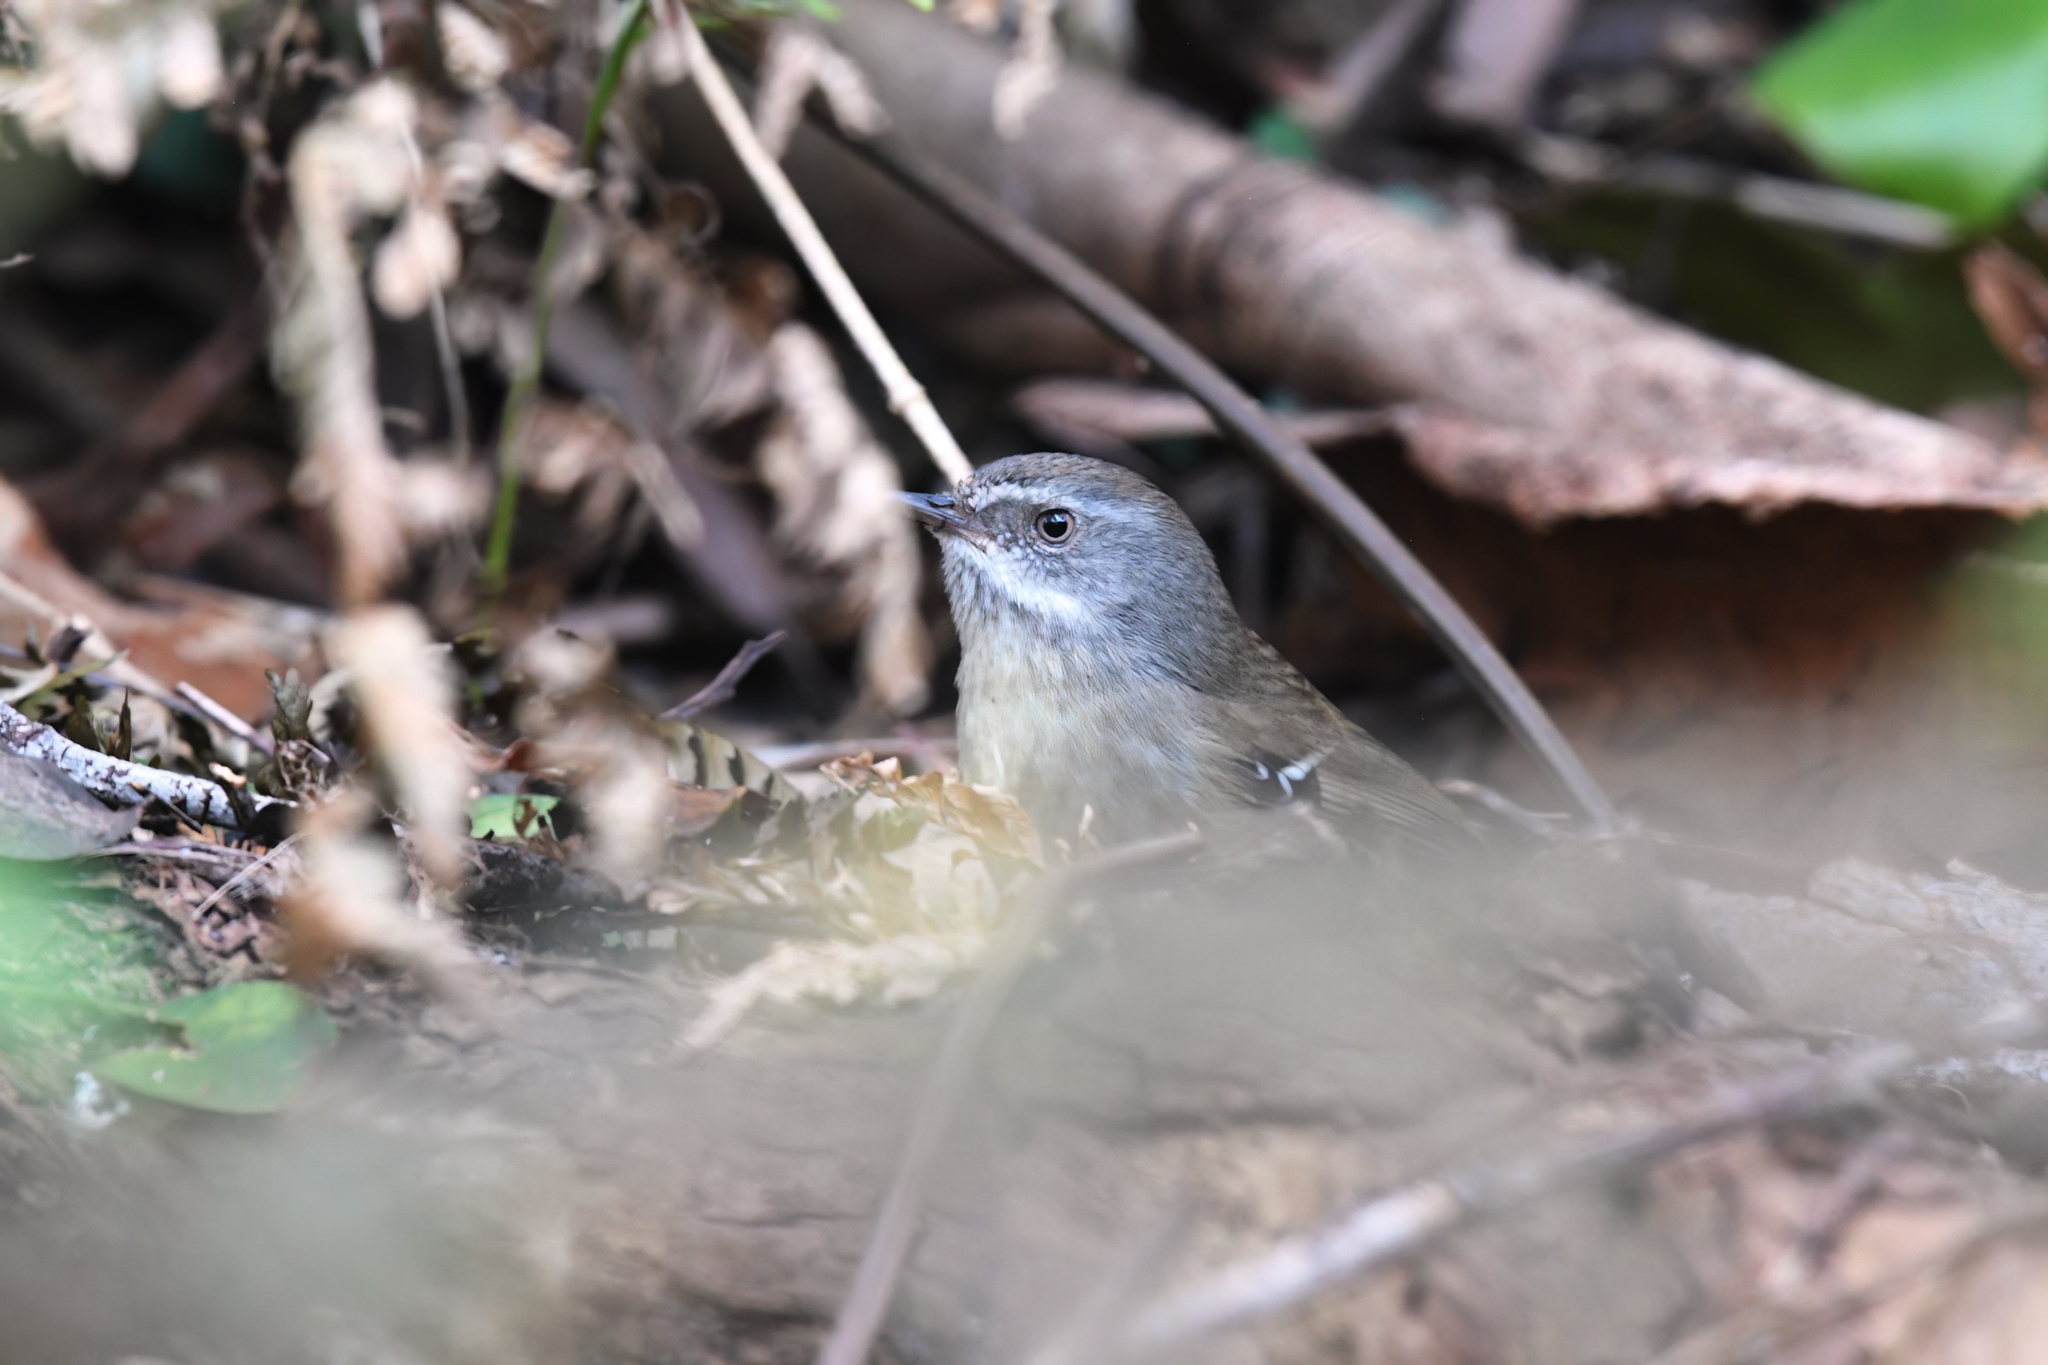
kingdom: Animalia
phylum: Chordata
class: Aves
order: Passeriformes
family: Acanthizidae
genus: Sericornis
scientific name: Sericornis frontalis
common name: White-browed scrubwren
